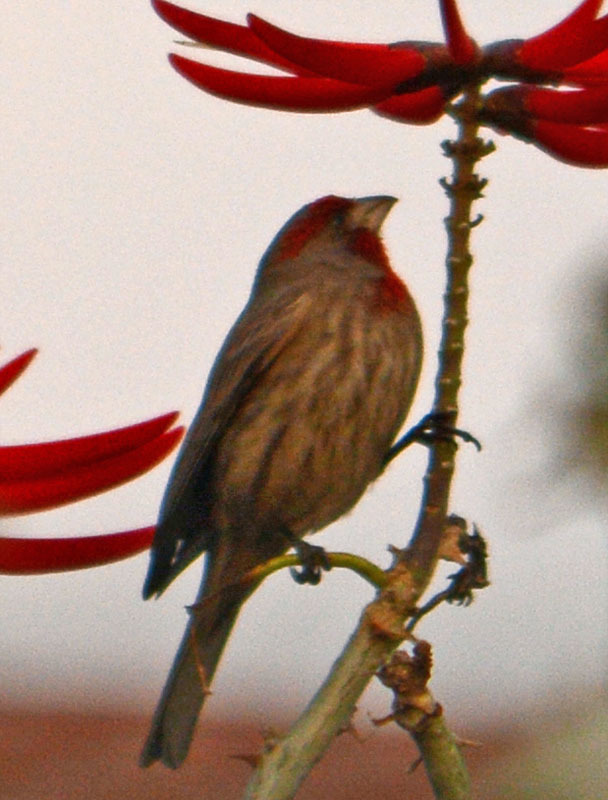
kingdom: Animalia
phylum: Chordata
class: Aves
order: Passeriformes
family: Fringillidae
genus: Haemorhous
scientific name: Haemorhous mexicanus
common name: House finch
